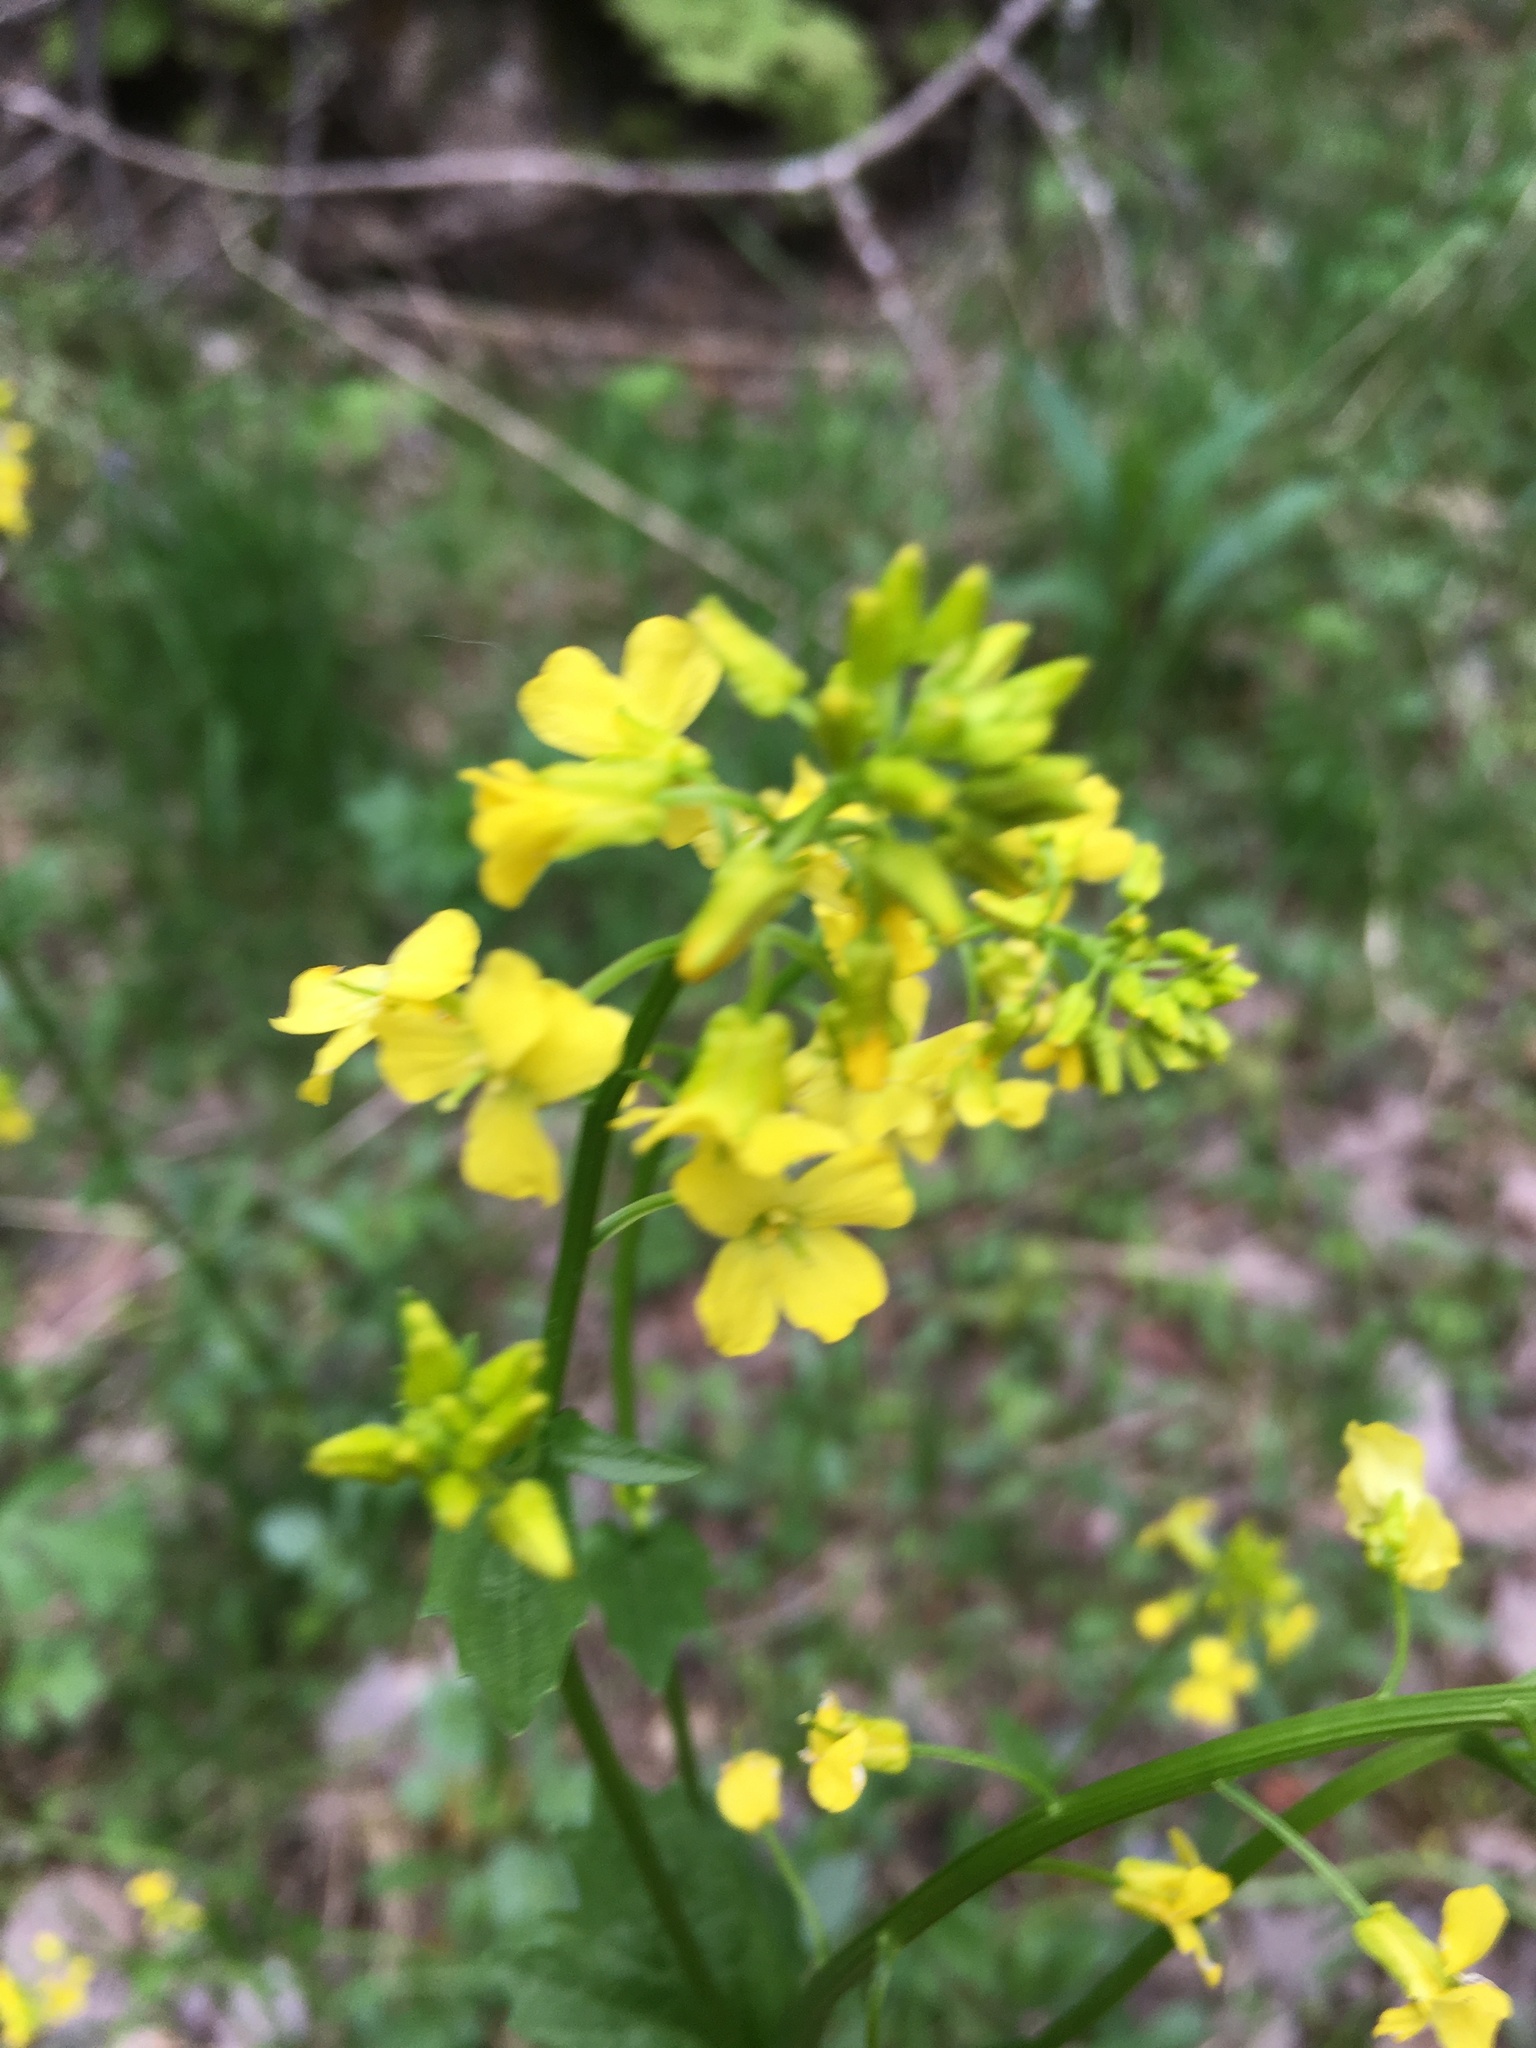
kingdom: Plantae
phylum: Tracheophyta
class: Magnoliopsida
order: Brassicales
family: Brassicaceae
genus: Barbarea
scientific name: Barbarea vulgaris
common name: Cressy-greens
